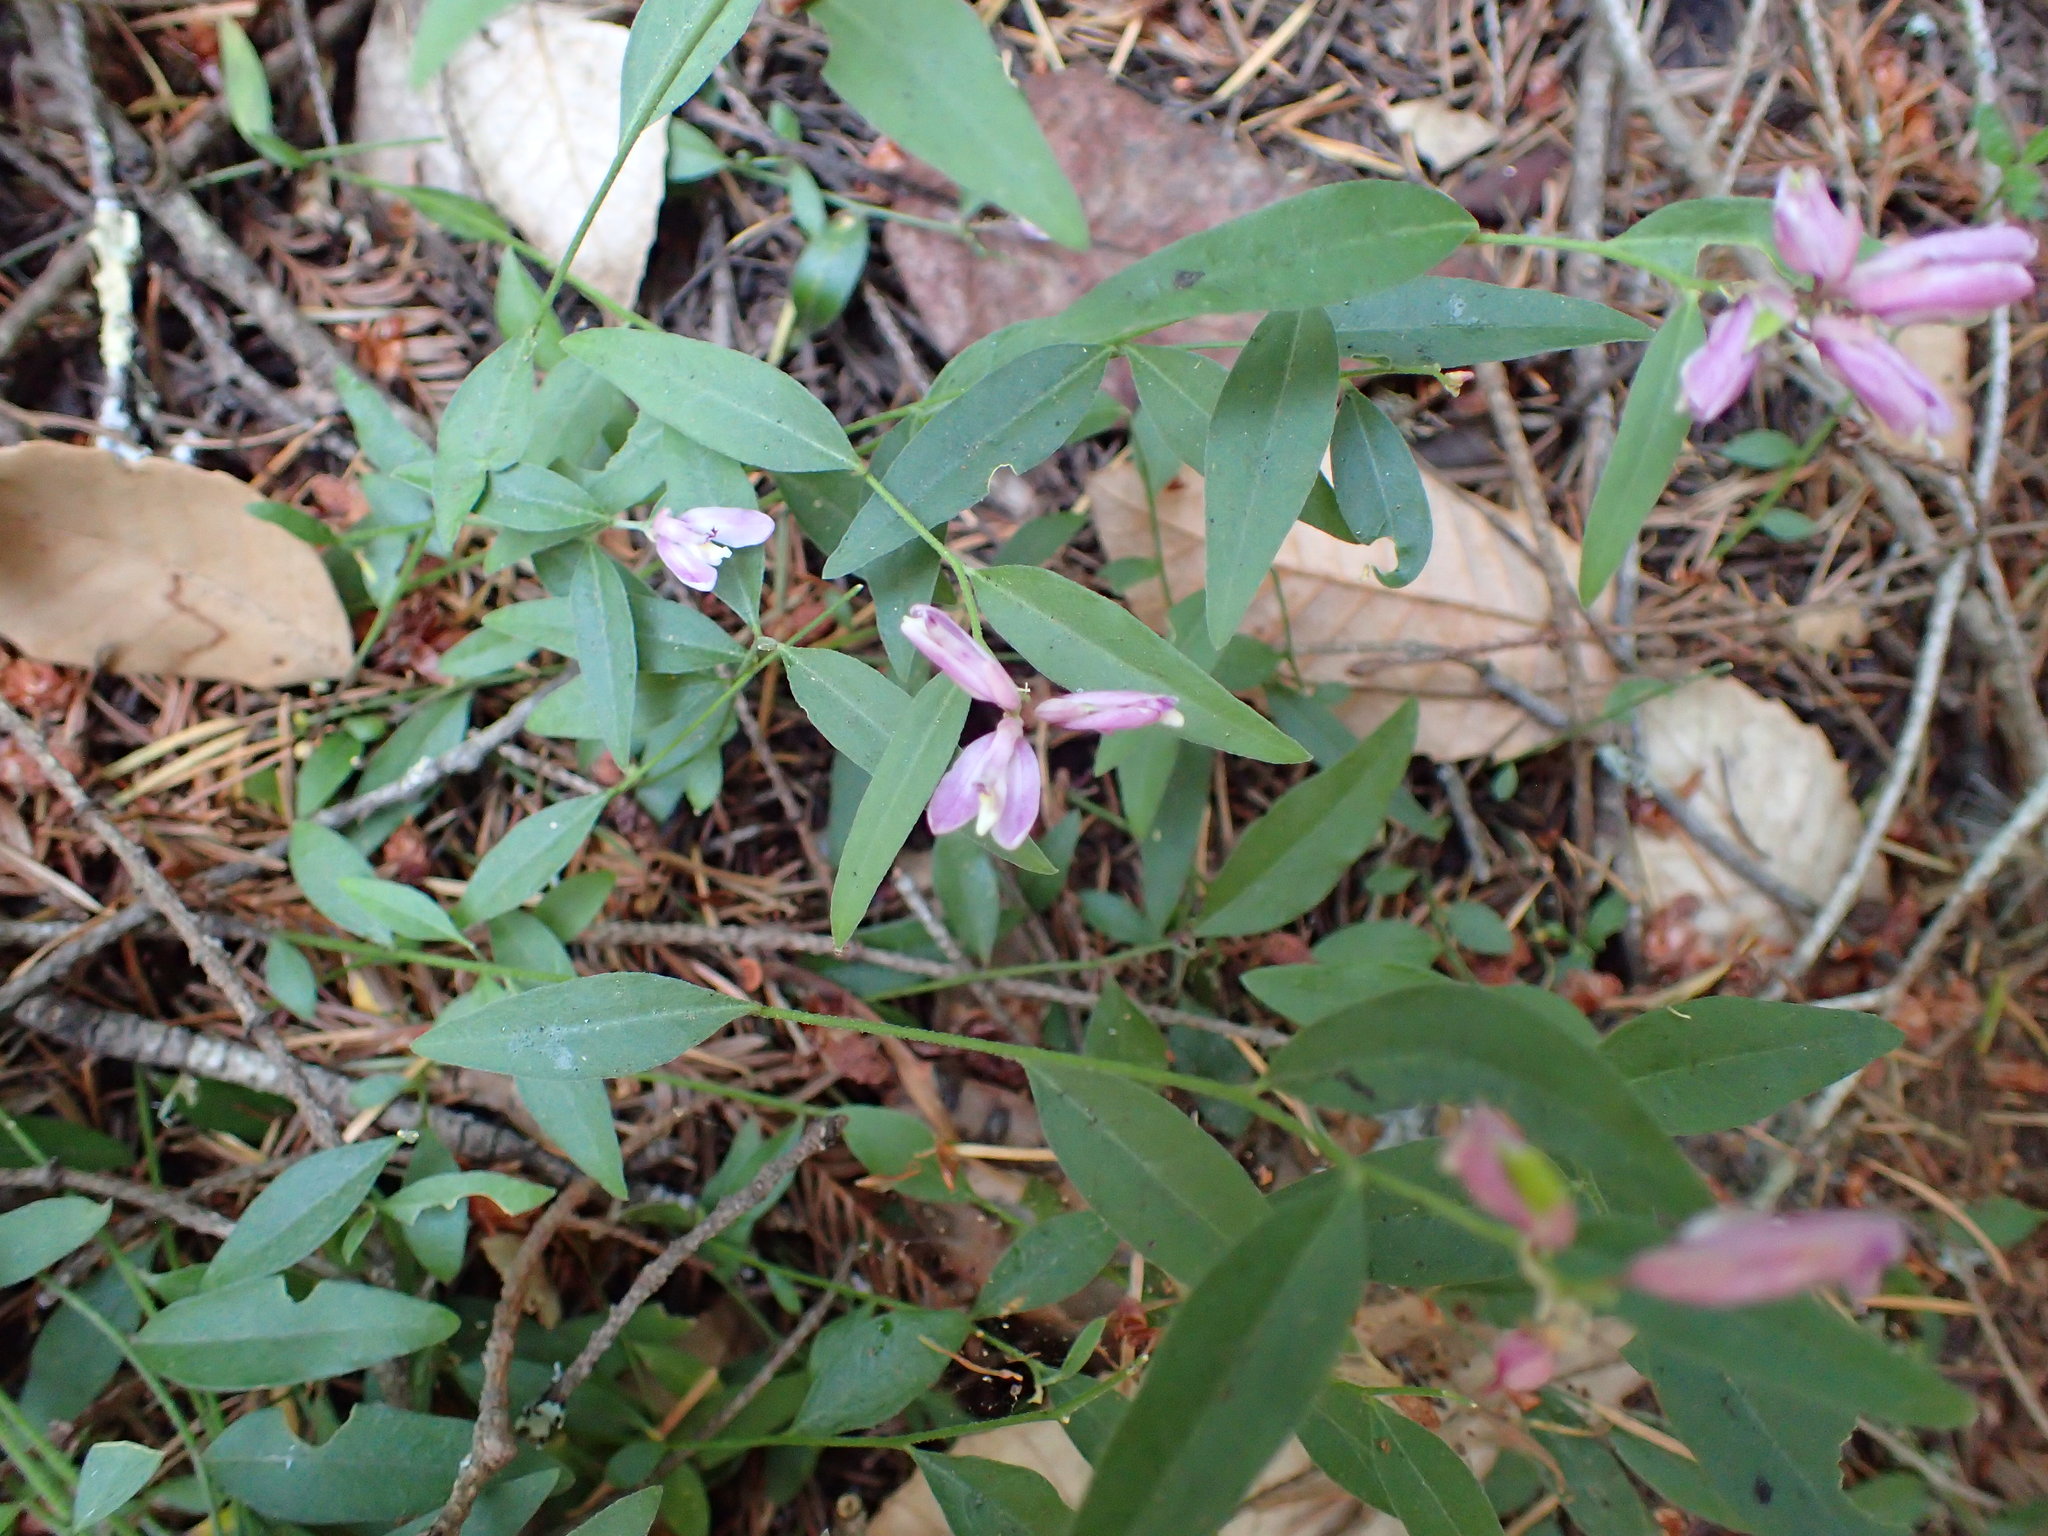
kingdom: Plantae
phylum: Tracheophyta
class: Magnoliopsida
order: Fabales
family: Polygalaceae
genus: Rhinotropis
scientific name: Rhinotropis californica
